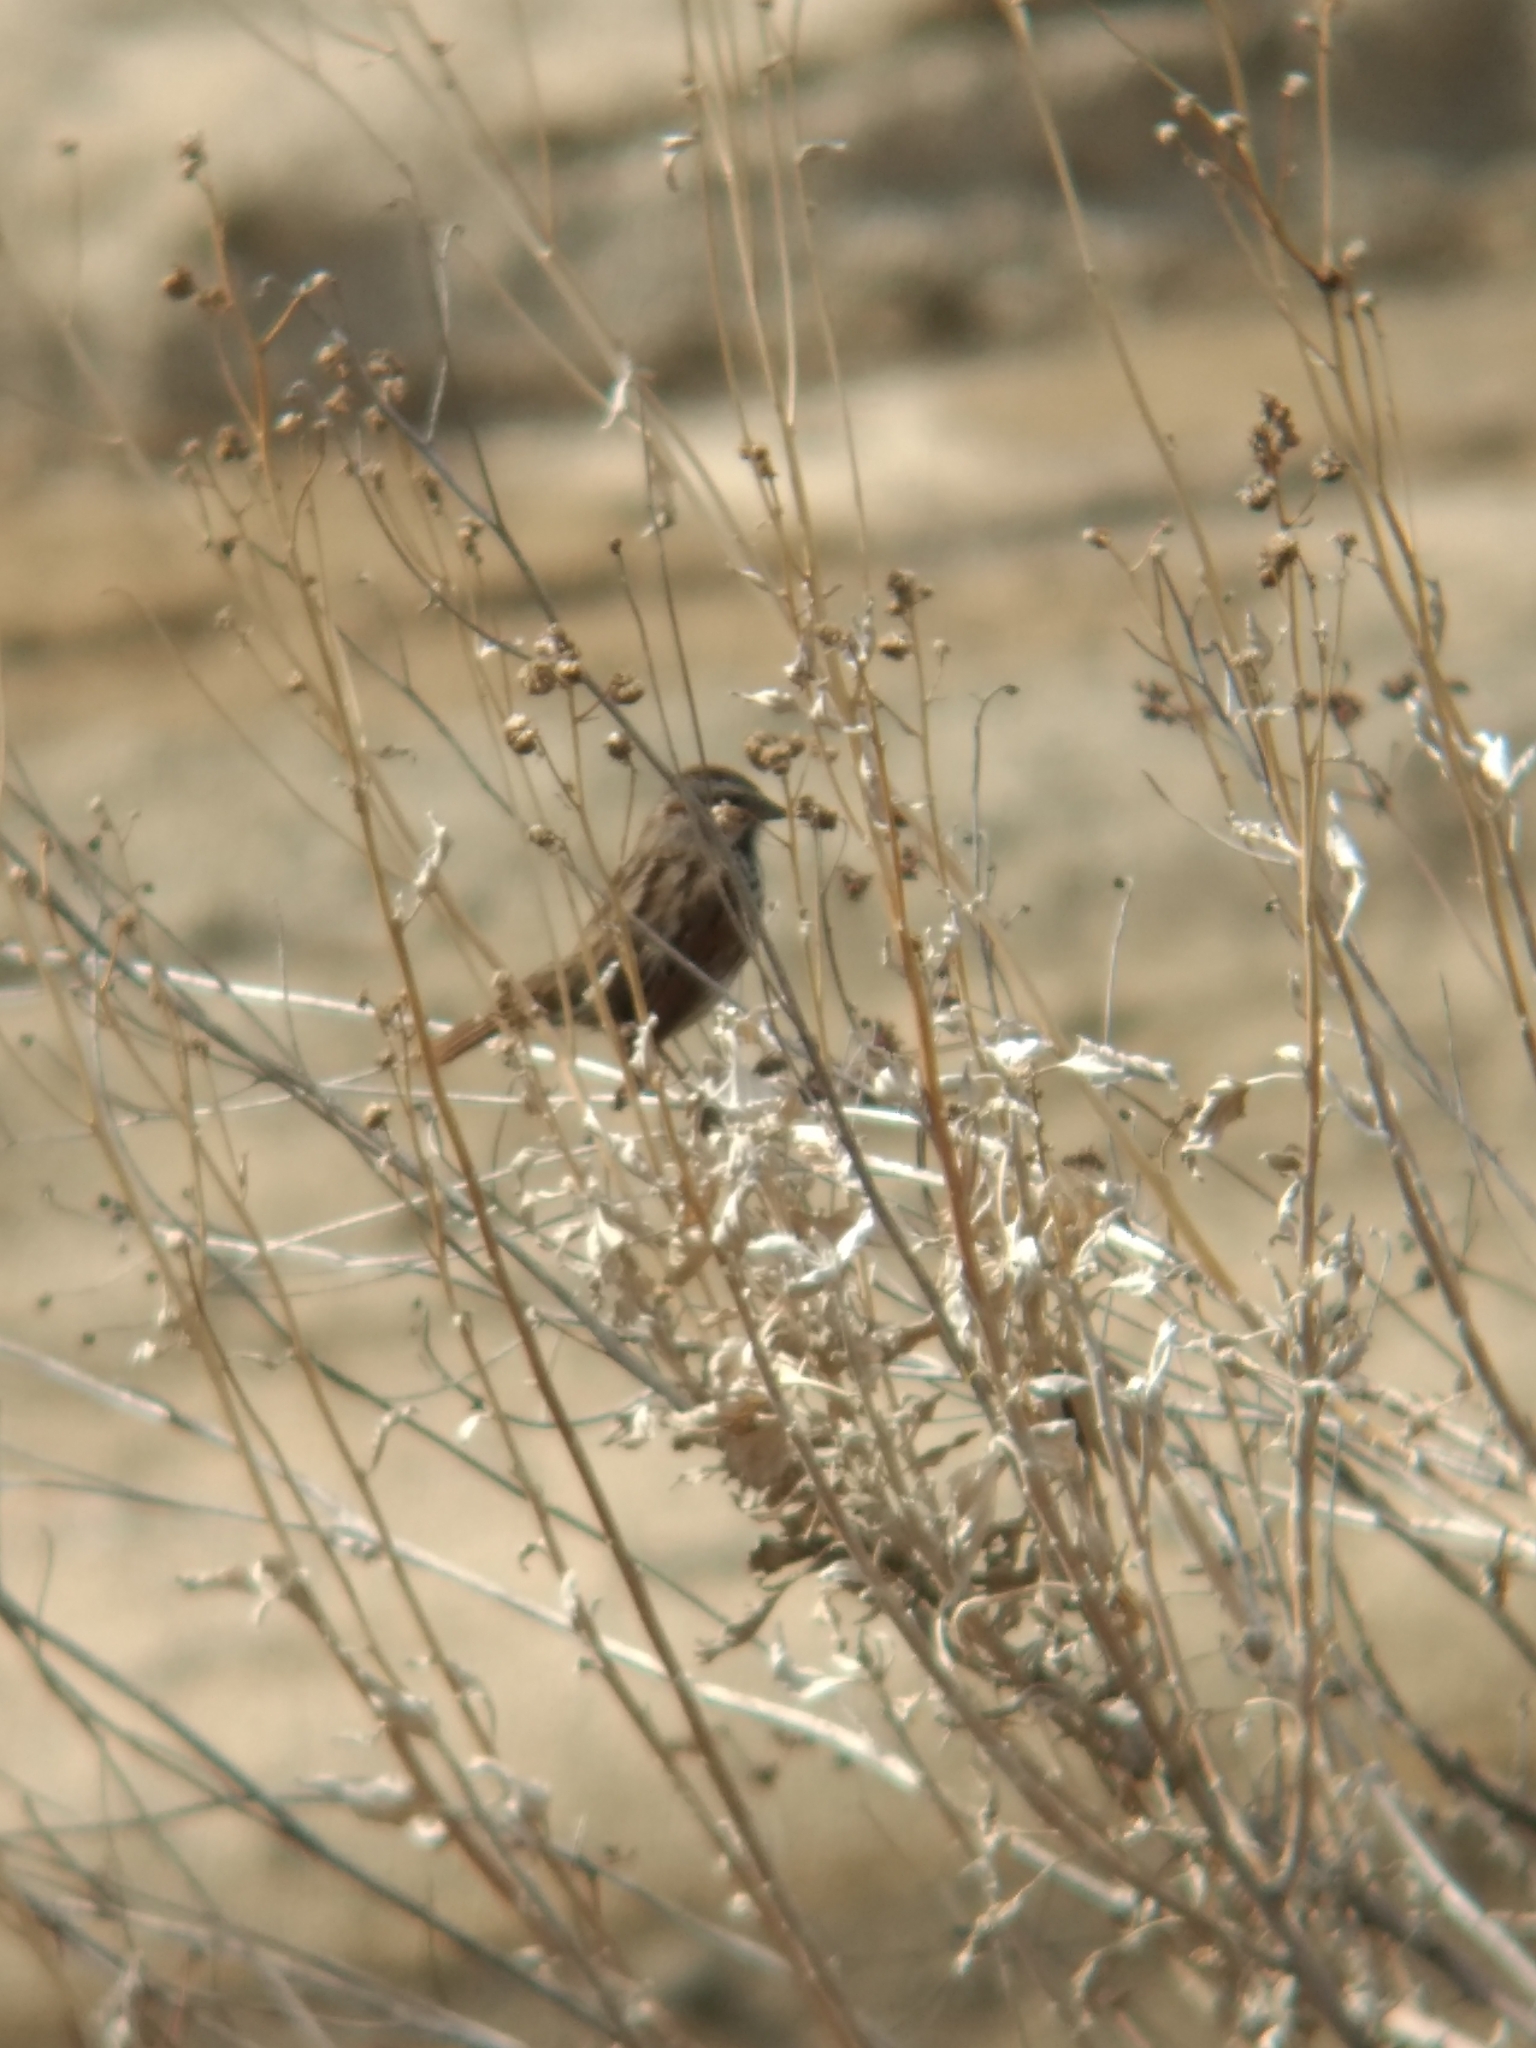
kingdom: Animalia
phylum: Chordata
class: Aves
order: Passeriformes
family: Passerellidae
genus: Melospiza
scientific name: Melospiza melodia
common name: Song sparrow
